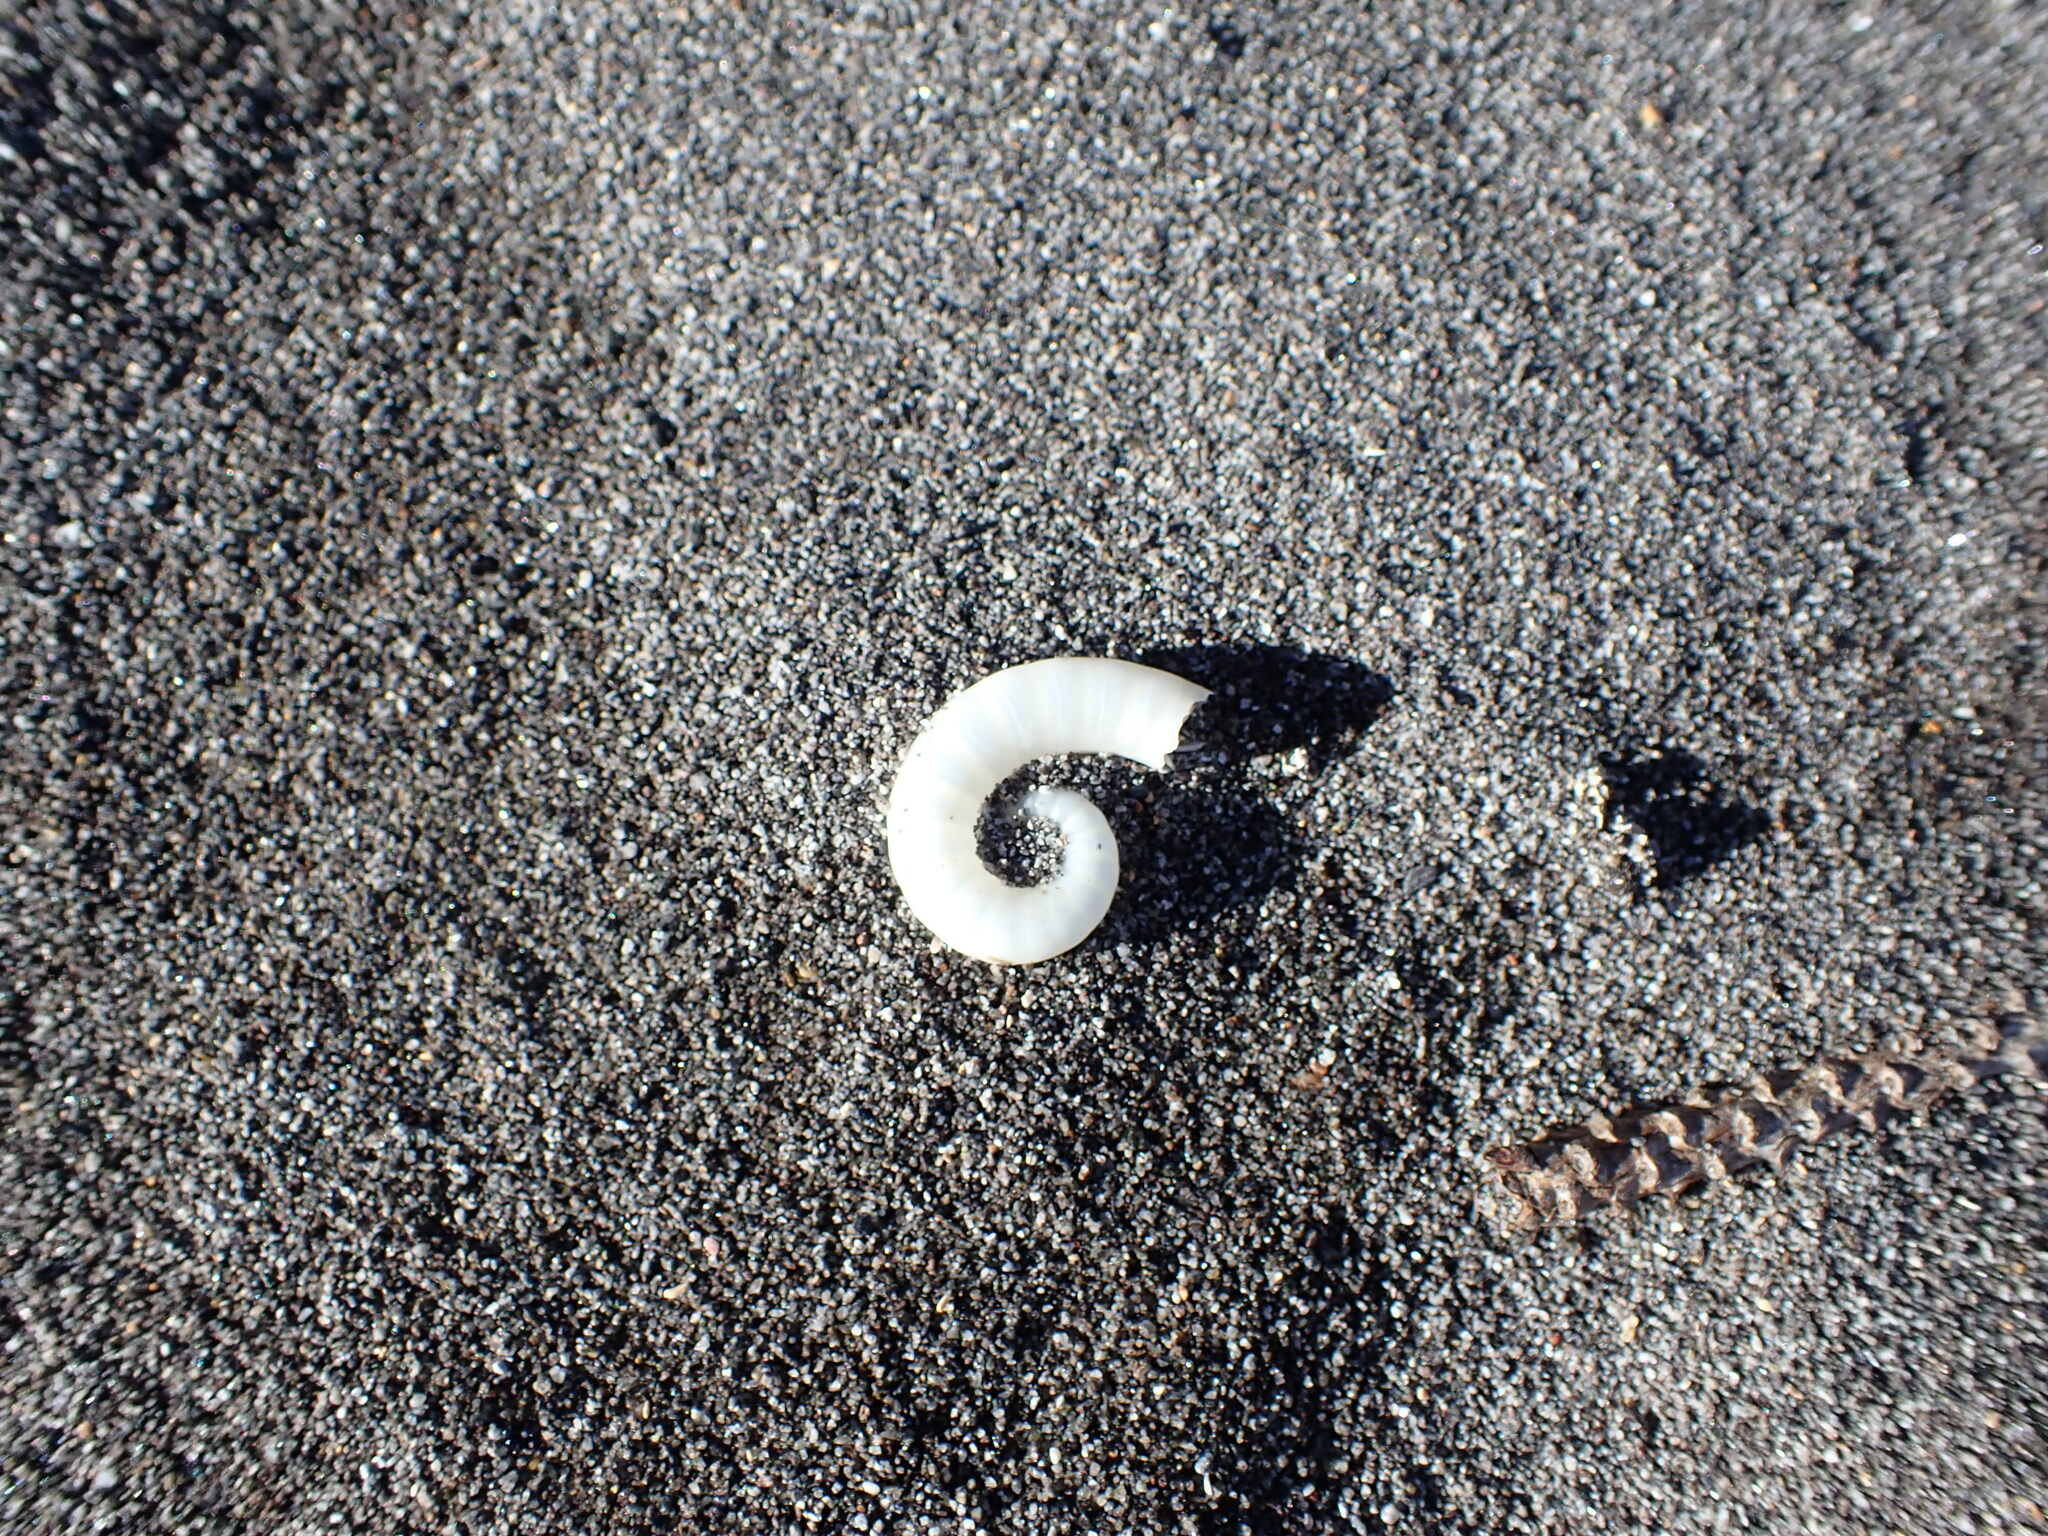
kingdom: Animalia
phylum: Mollusca
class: Cephalopoda
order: Spirulida
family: Spirulidae
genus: Spirula
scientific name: Spirula spirula
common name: Ram's horn squid
